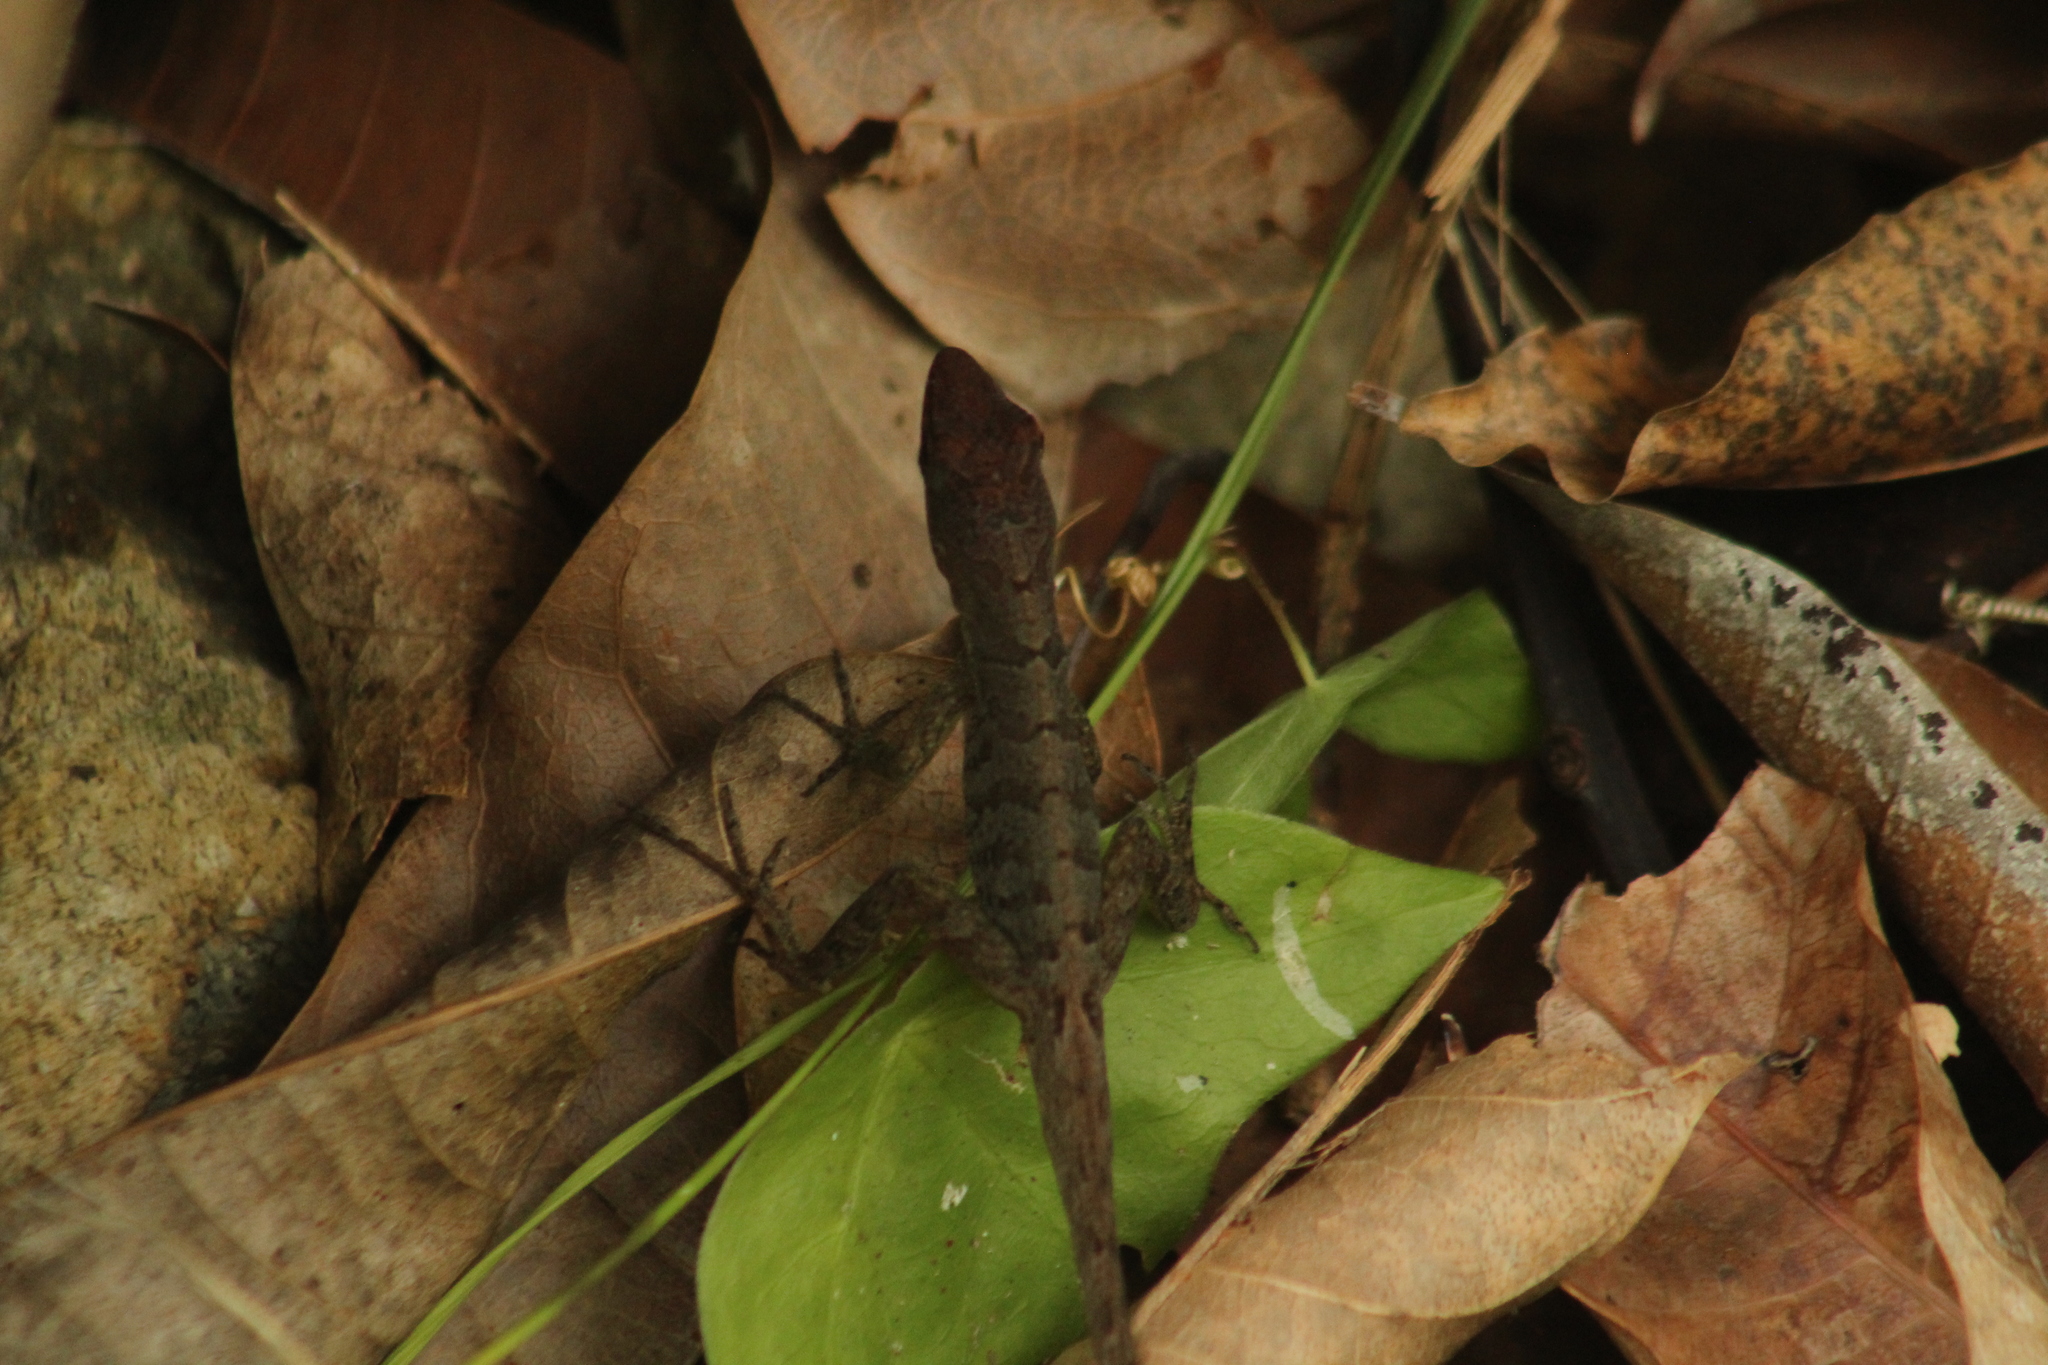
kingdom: Animalia
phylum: Chordata
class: Squamata
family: Dactyloidae
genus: Anolis
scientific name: Anolis pogus
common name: Anguilla bank bush anole
